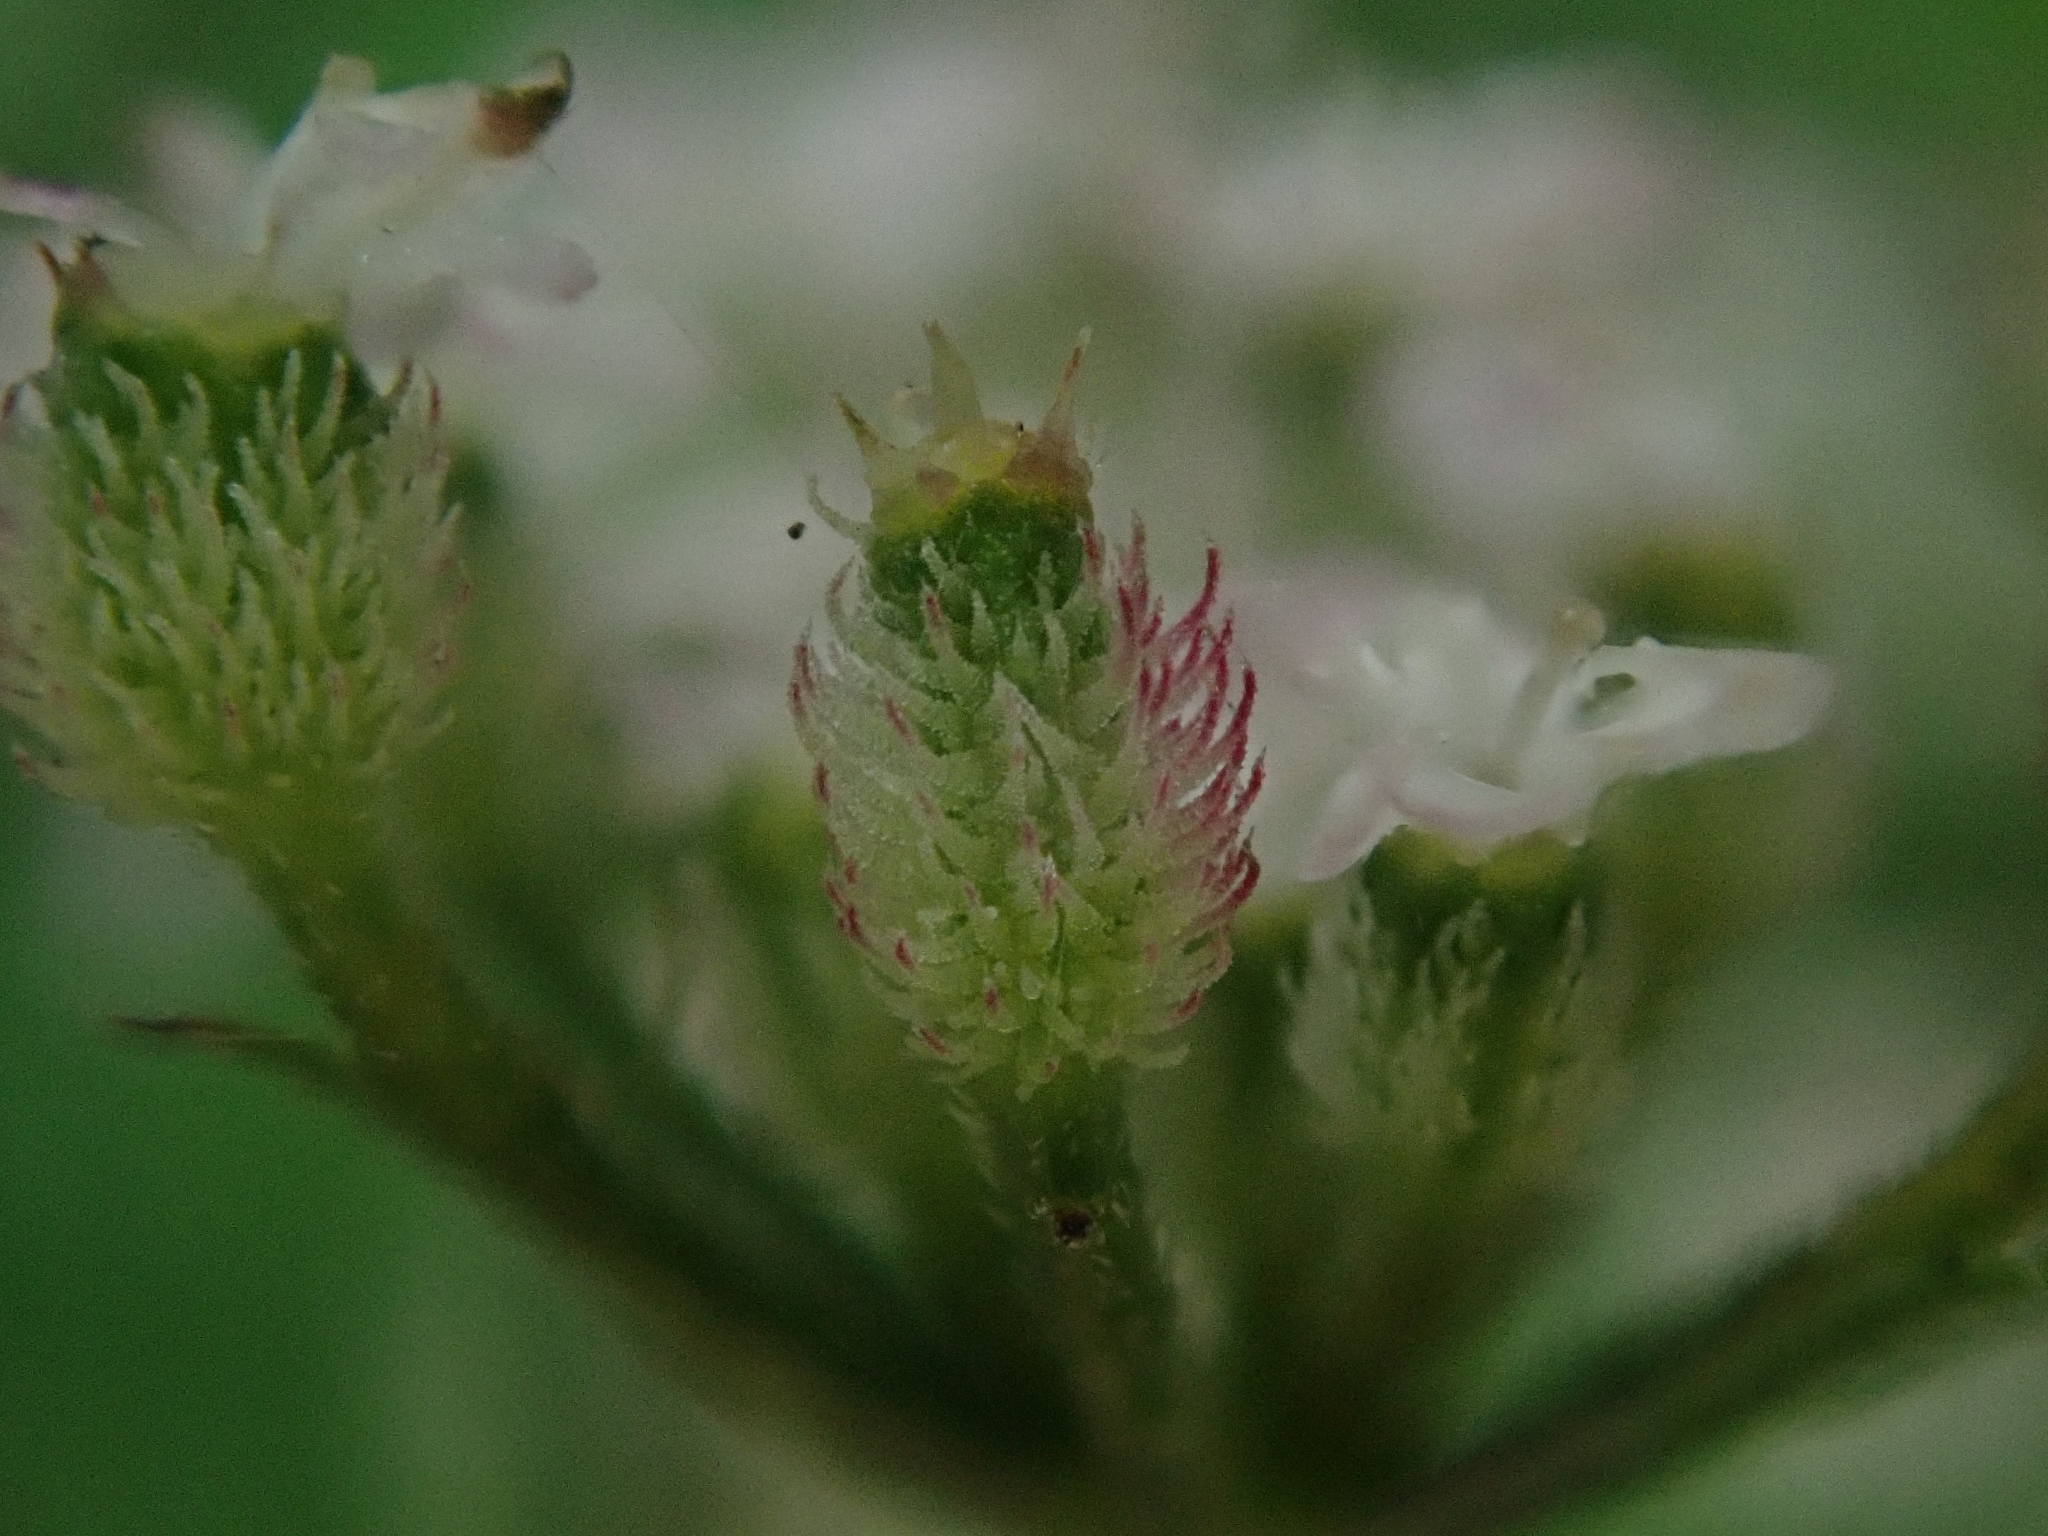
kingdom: Plantae
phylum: Tracheophyta
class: Magnoliopsida
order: Apiales
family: Apiaceae
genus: Torilis
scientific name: Torilis japonica
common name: Upright hedge-parsley
